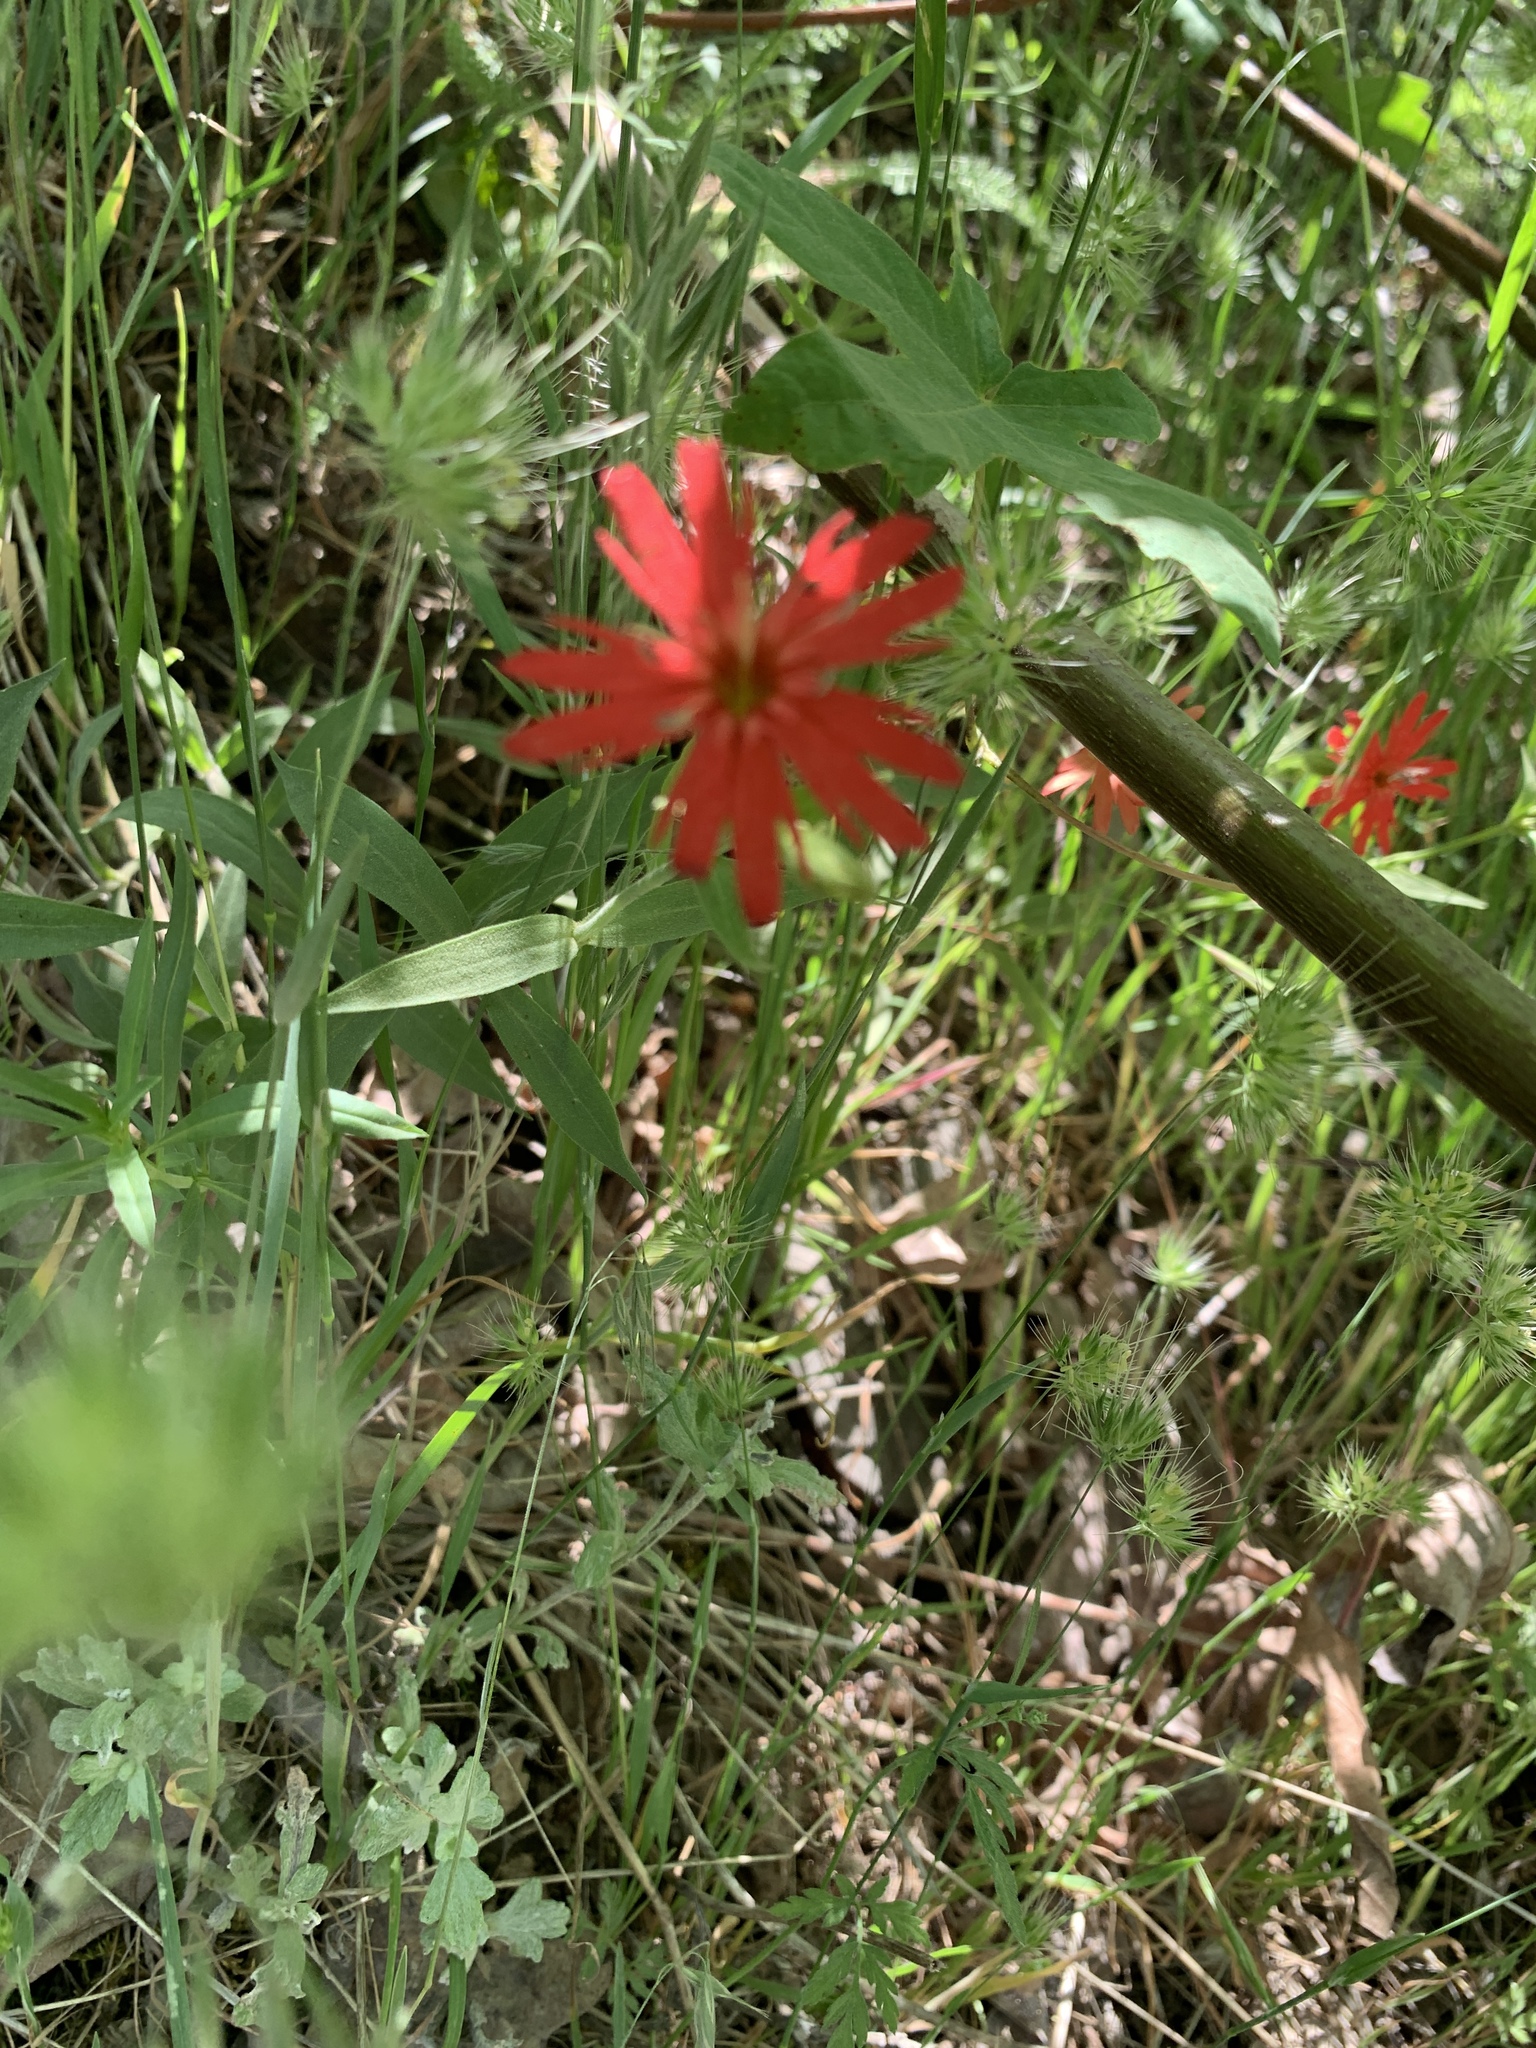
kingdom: Plantae
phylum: Tracheophyta
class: Magnoliopsida
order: Caryophyllales
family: Caryophyllaceae
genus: Silene
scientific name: Silene laciniata
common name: Indian-pink
